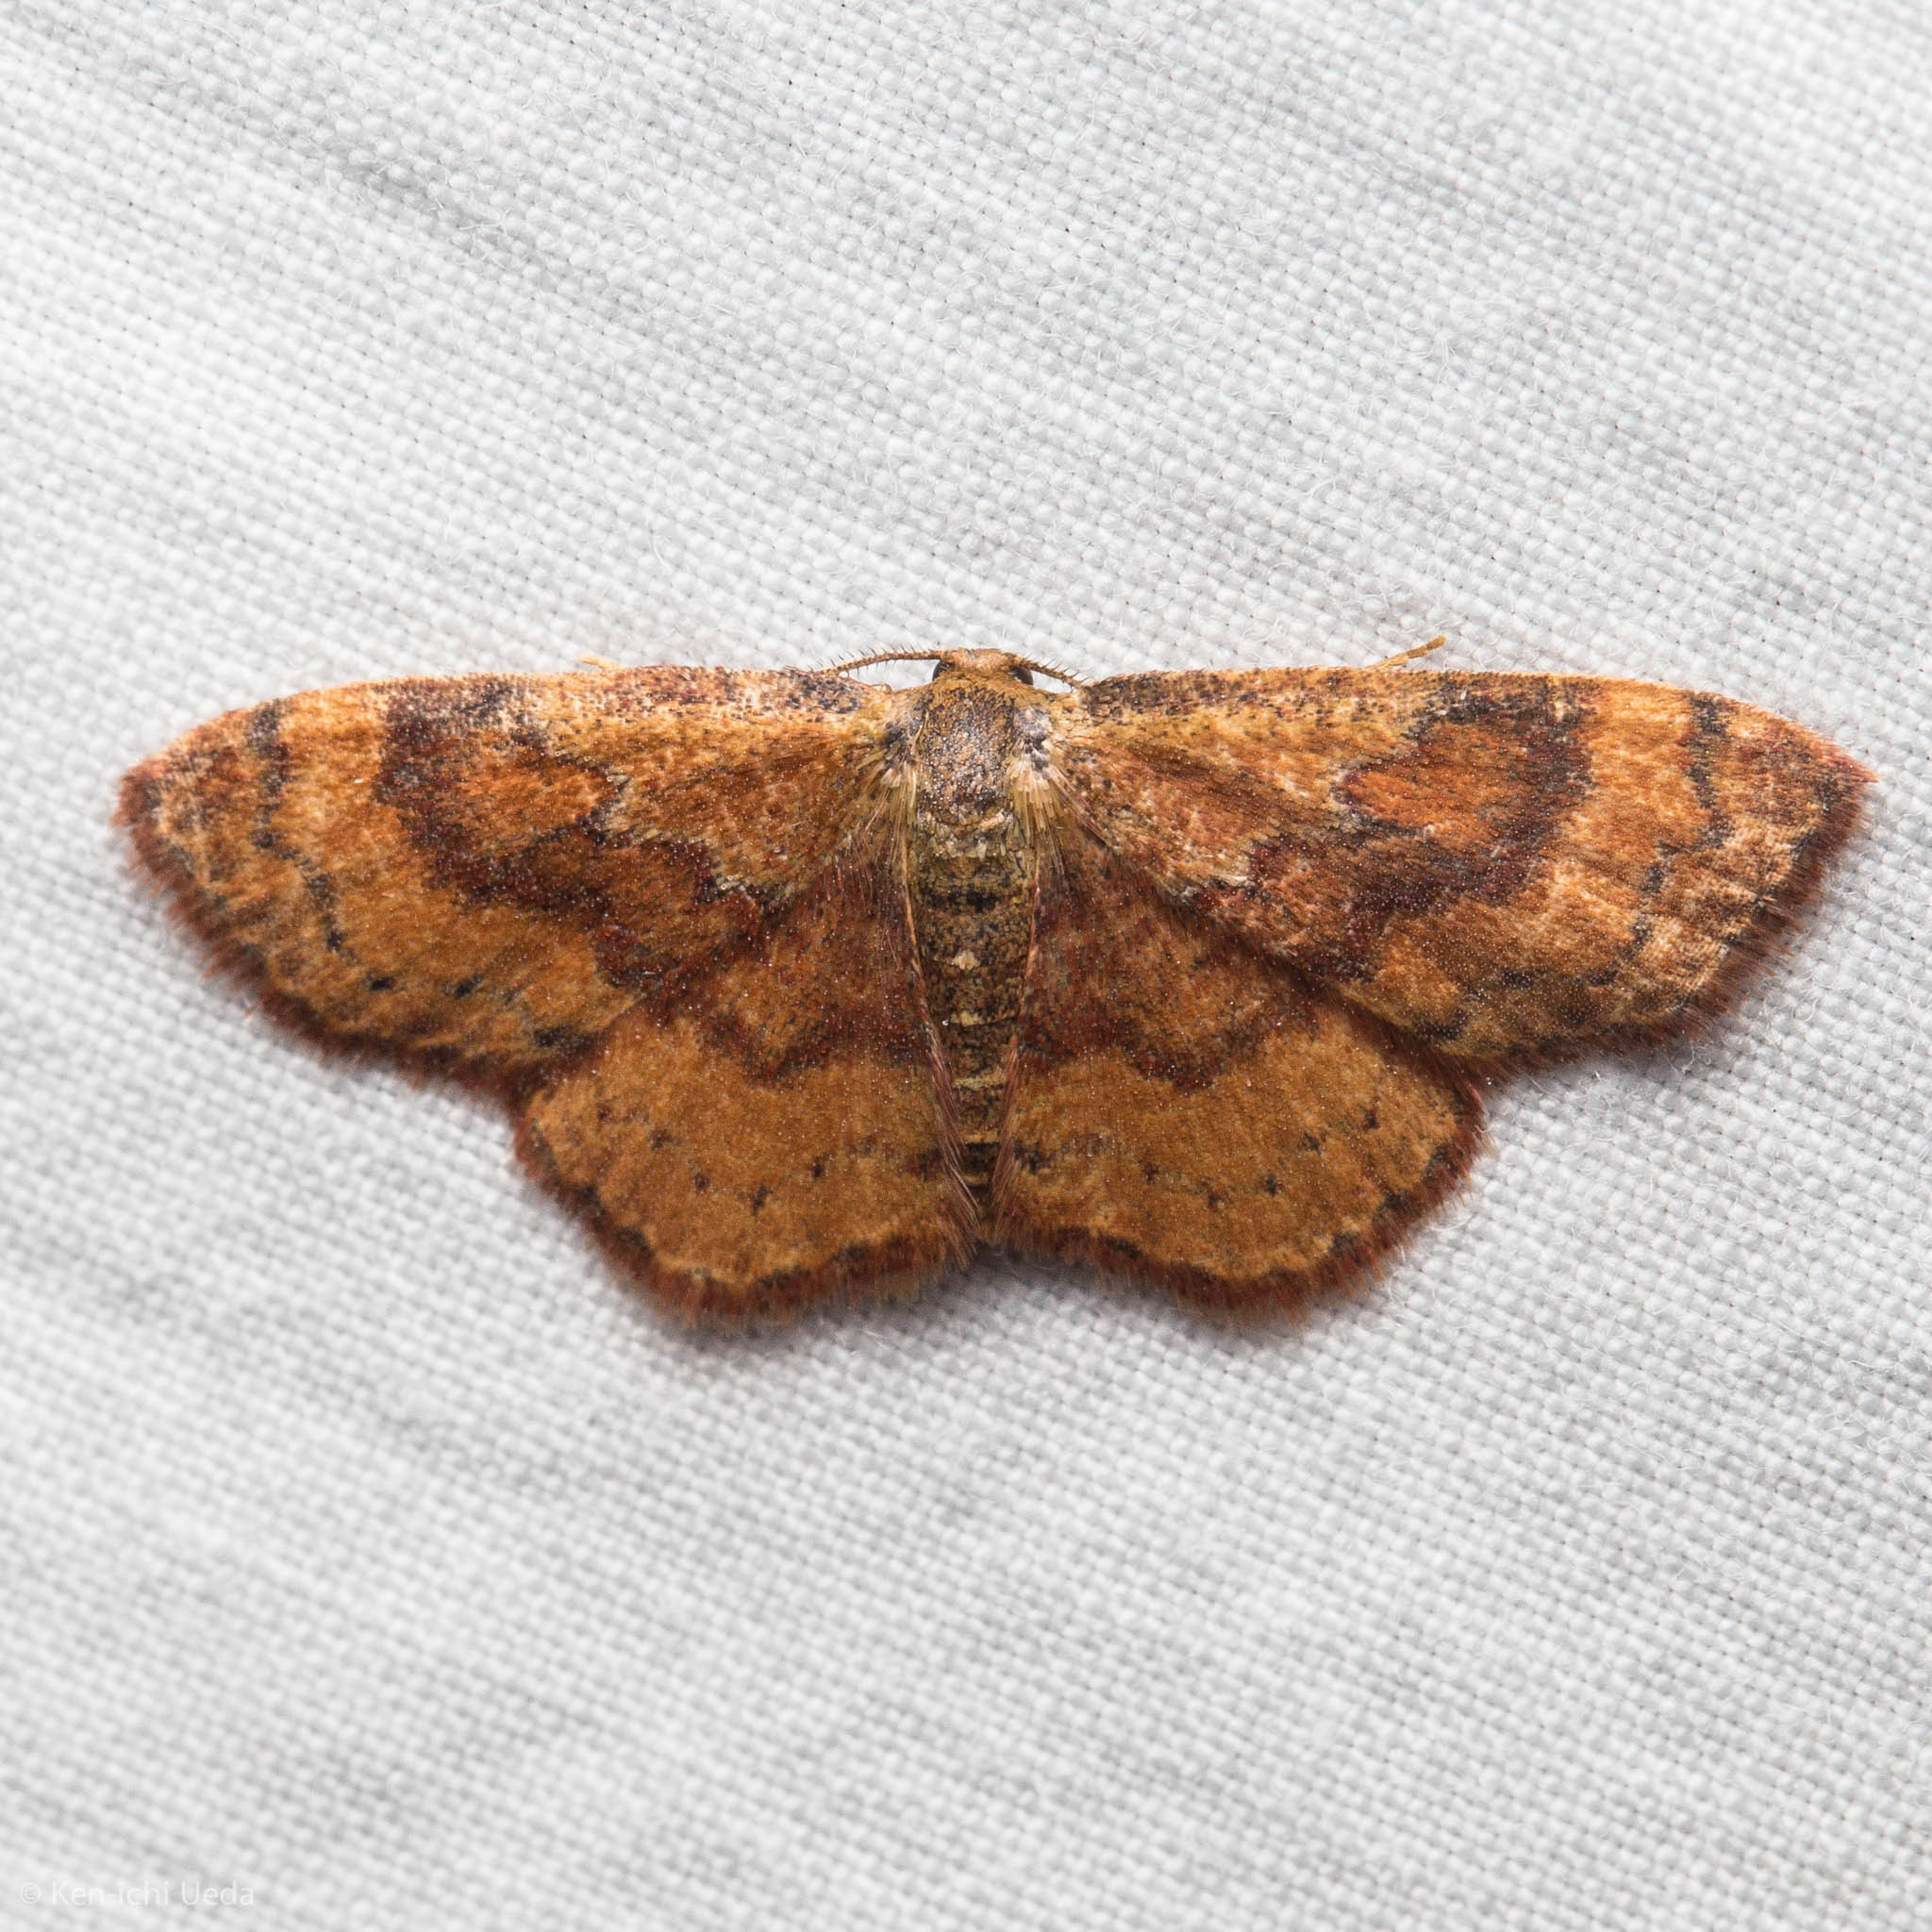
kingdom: Animalia
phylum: Arthropoda
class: Insecta
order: Lepidoptera
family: Geometridae
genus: Leptostales
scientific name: Leptostales rubromarginaria
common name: Dark-ribboned wave
